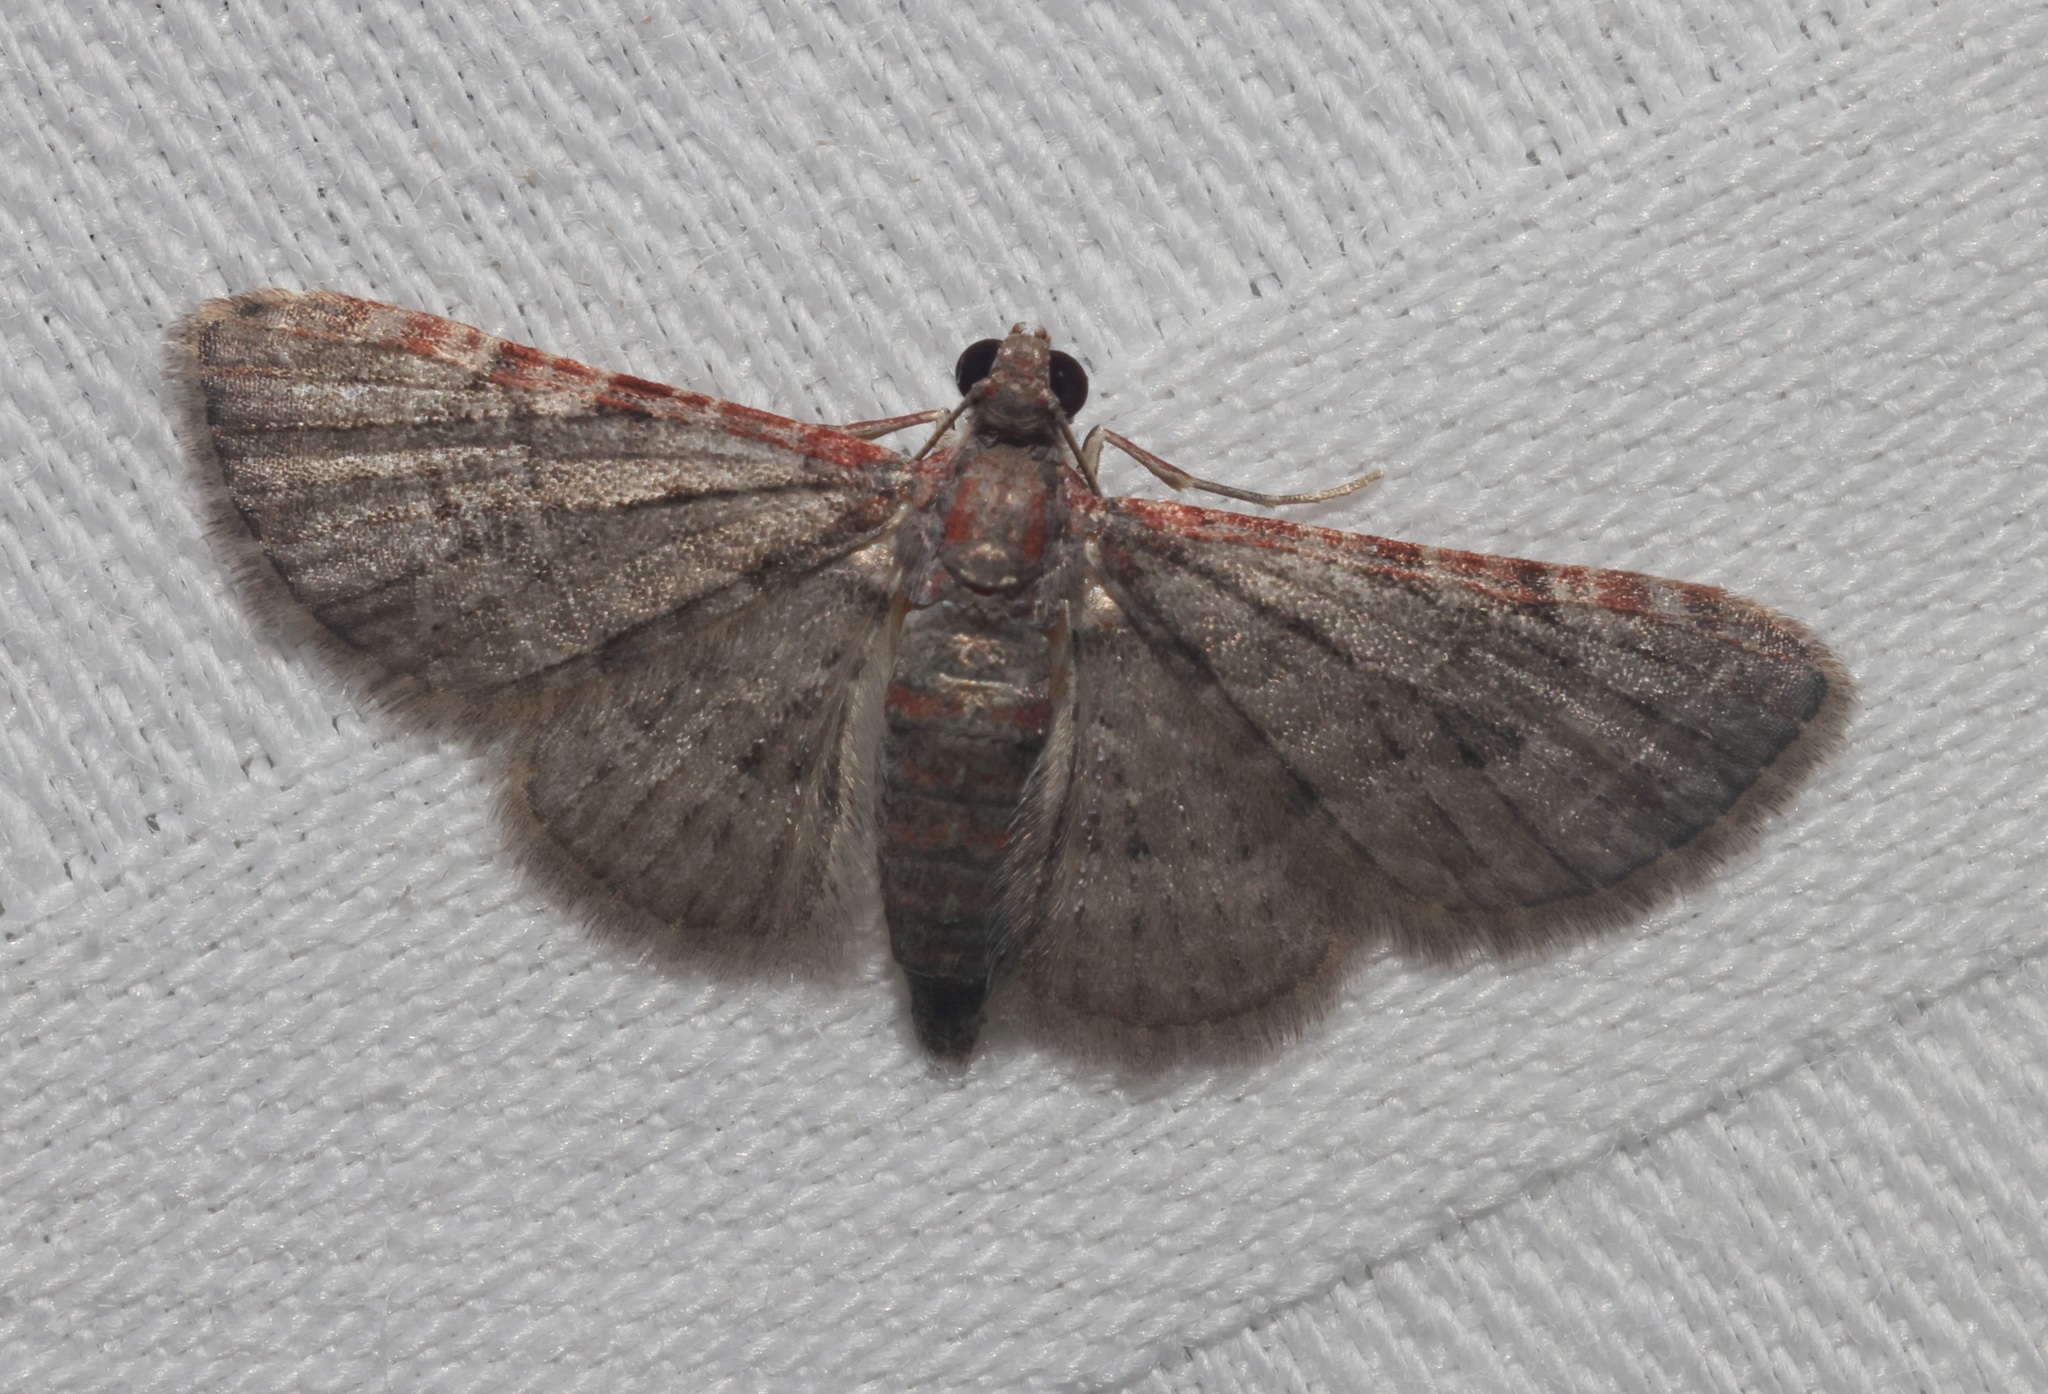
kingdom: Animalia
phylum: Arthropoda
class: Insecta
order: Lepidoptera
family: Geometridae
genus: Sigilliclystis
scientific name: Sigilliclystis
